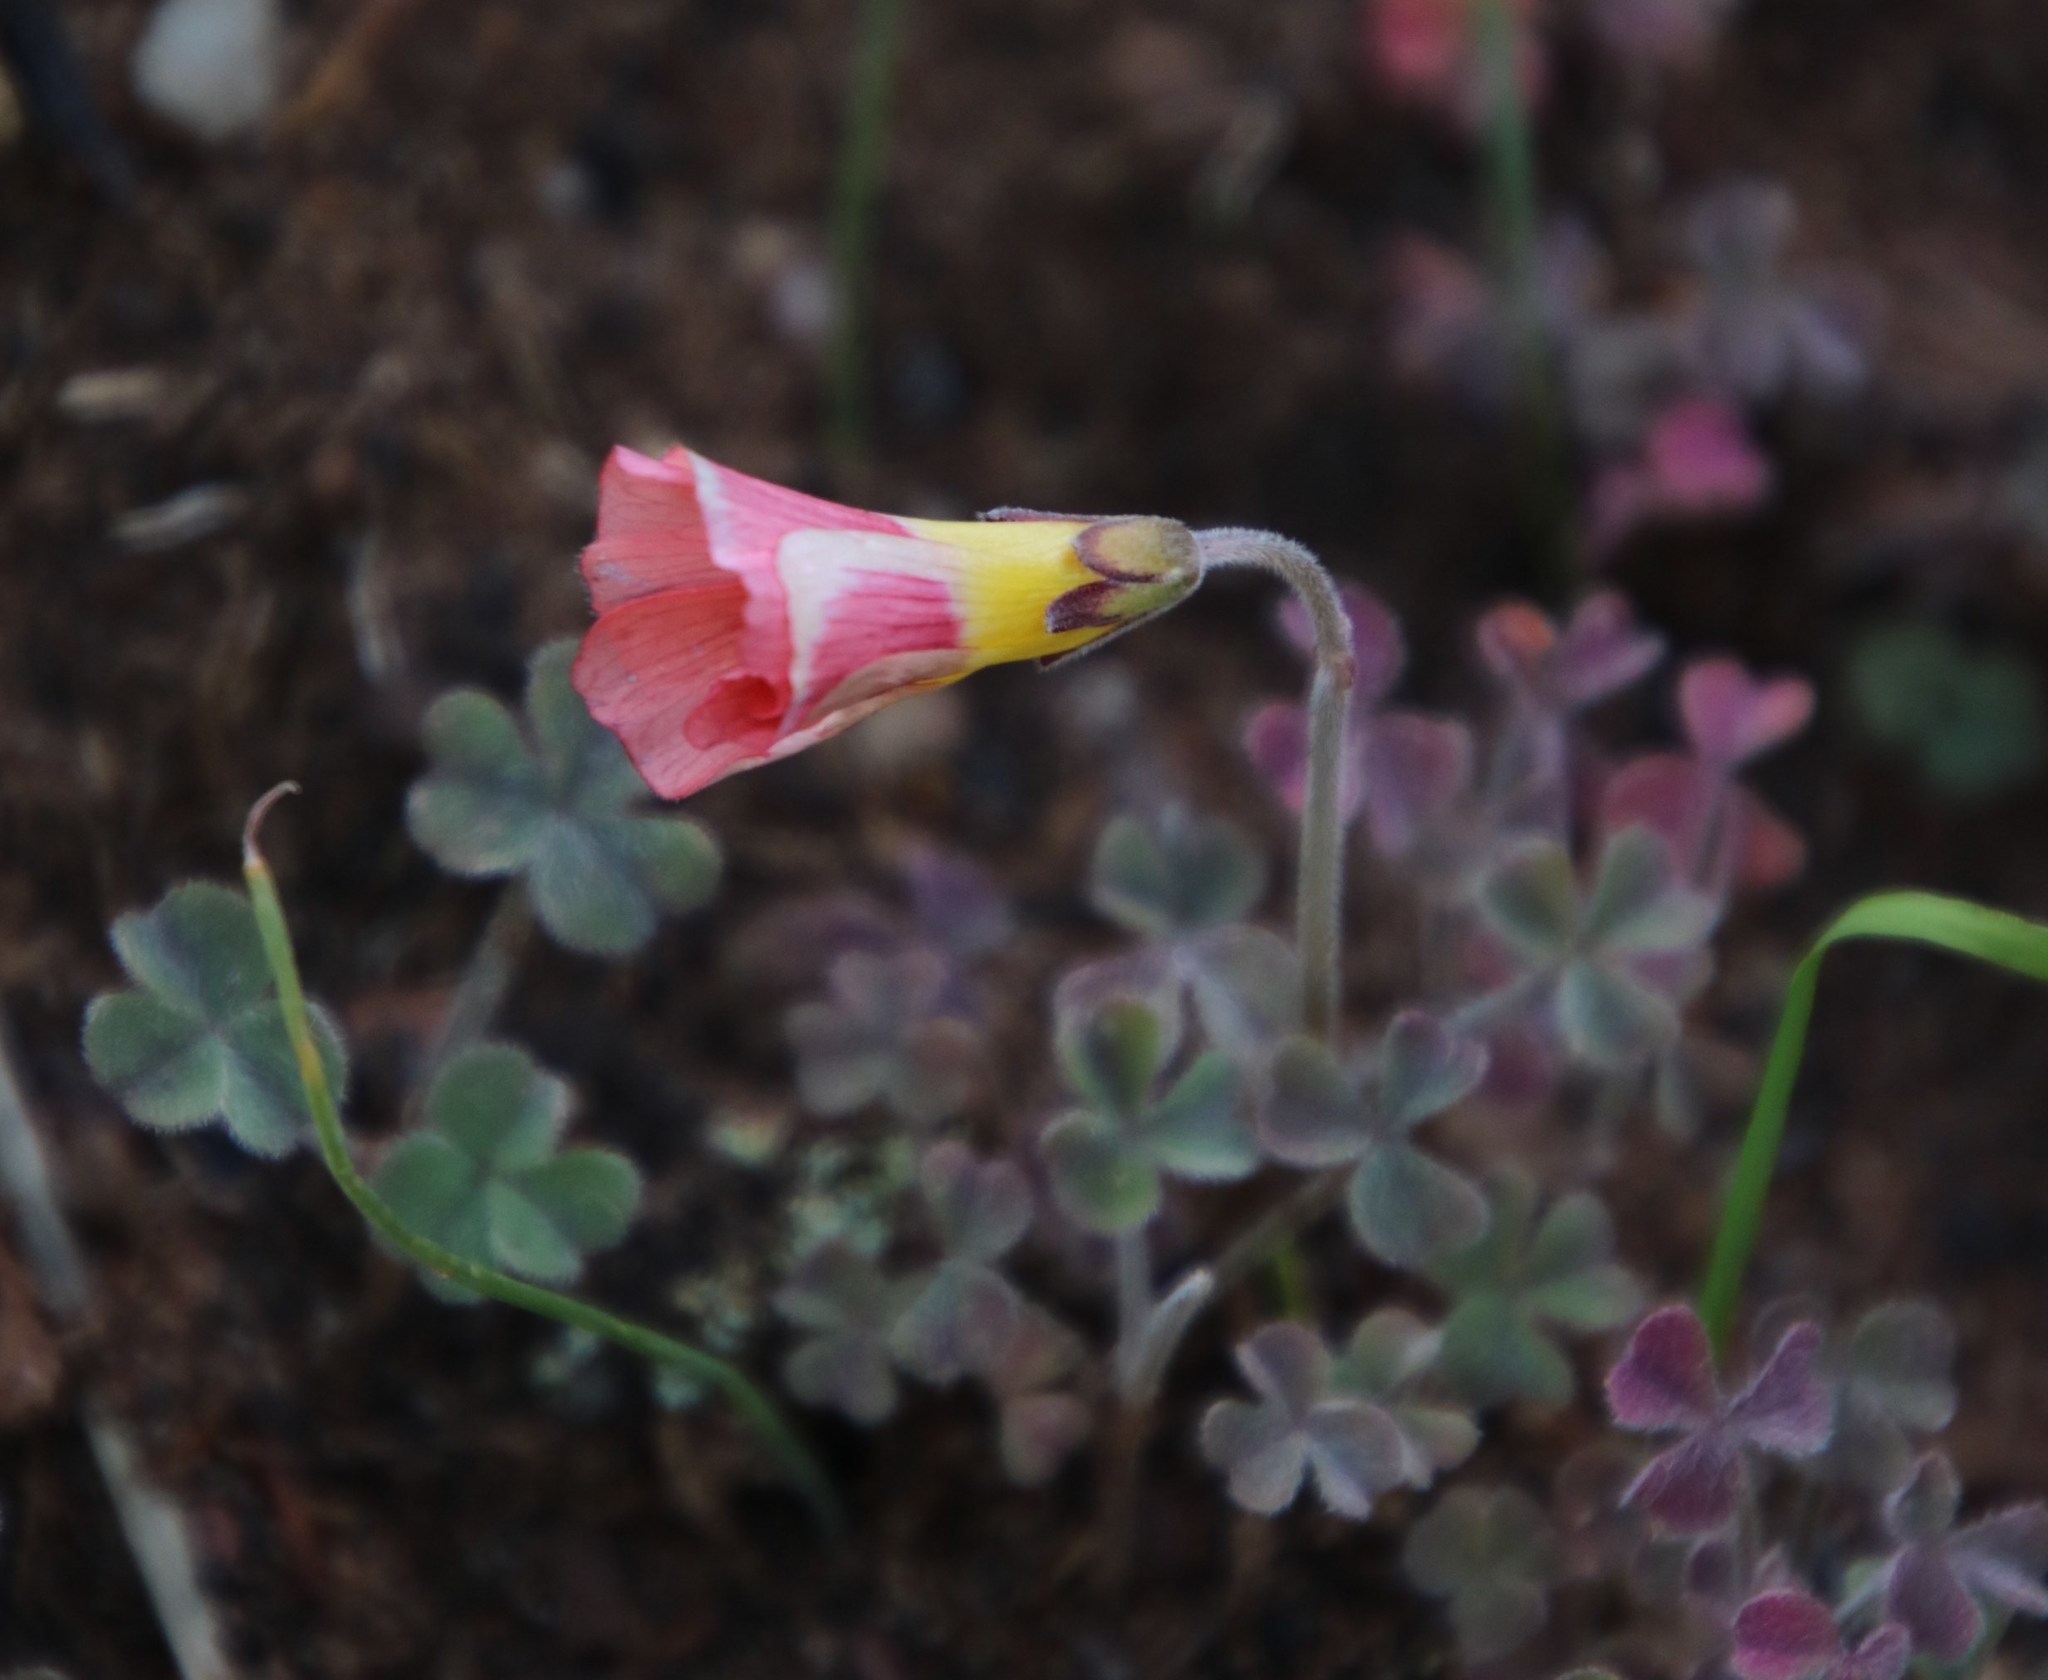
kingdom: Plantae
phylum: Tracheophyta
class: Magnoliopsida
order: Oxalidales
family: Oxalidaceae
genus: Oxalis
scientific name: Oxalis obtusa
